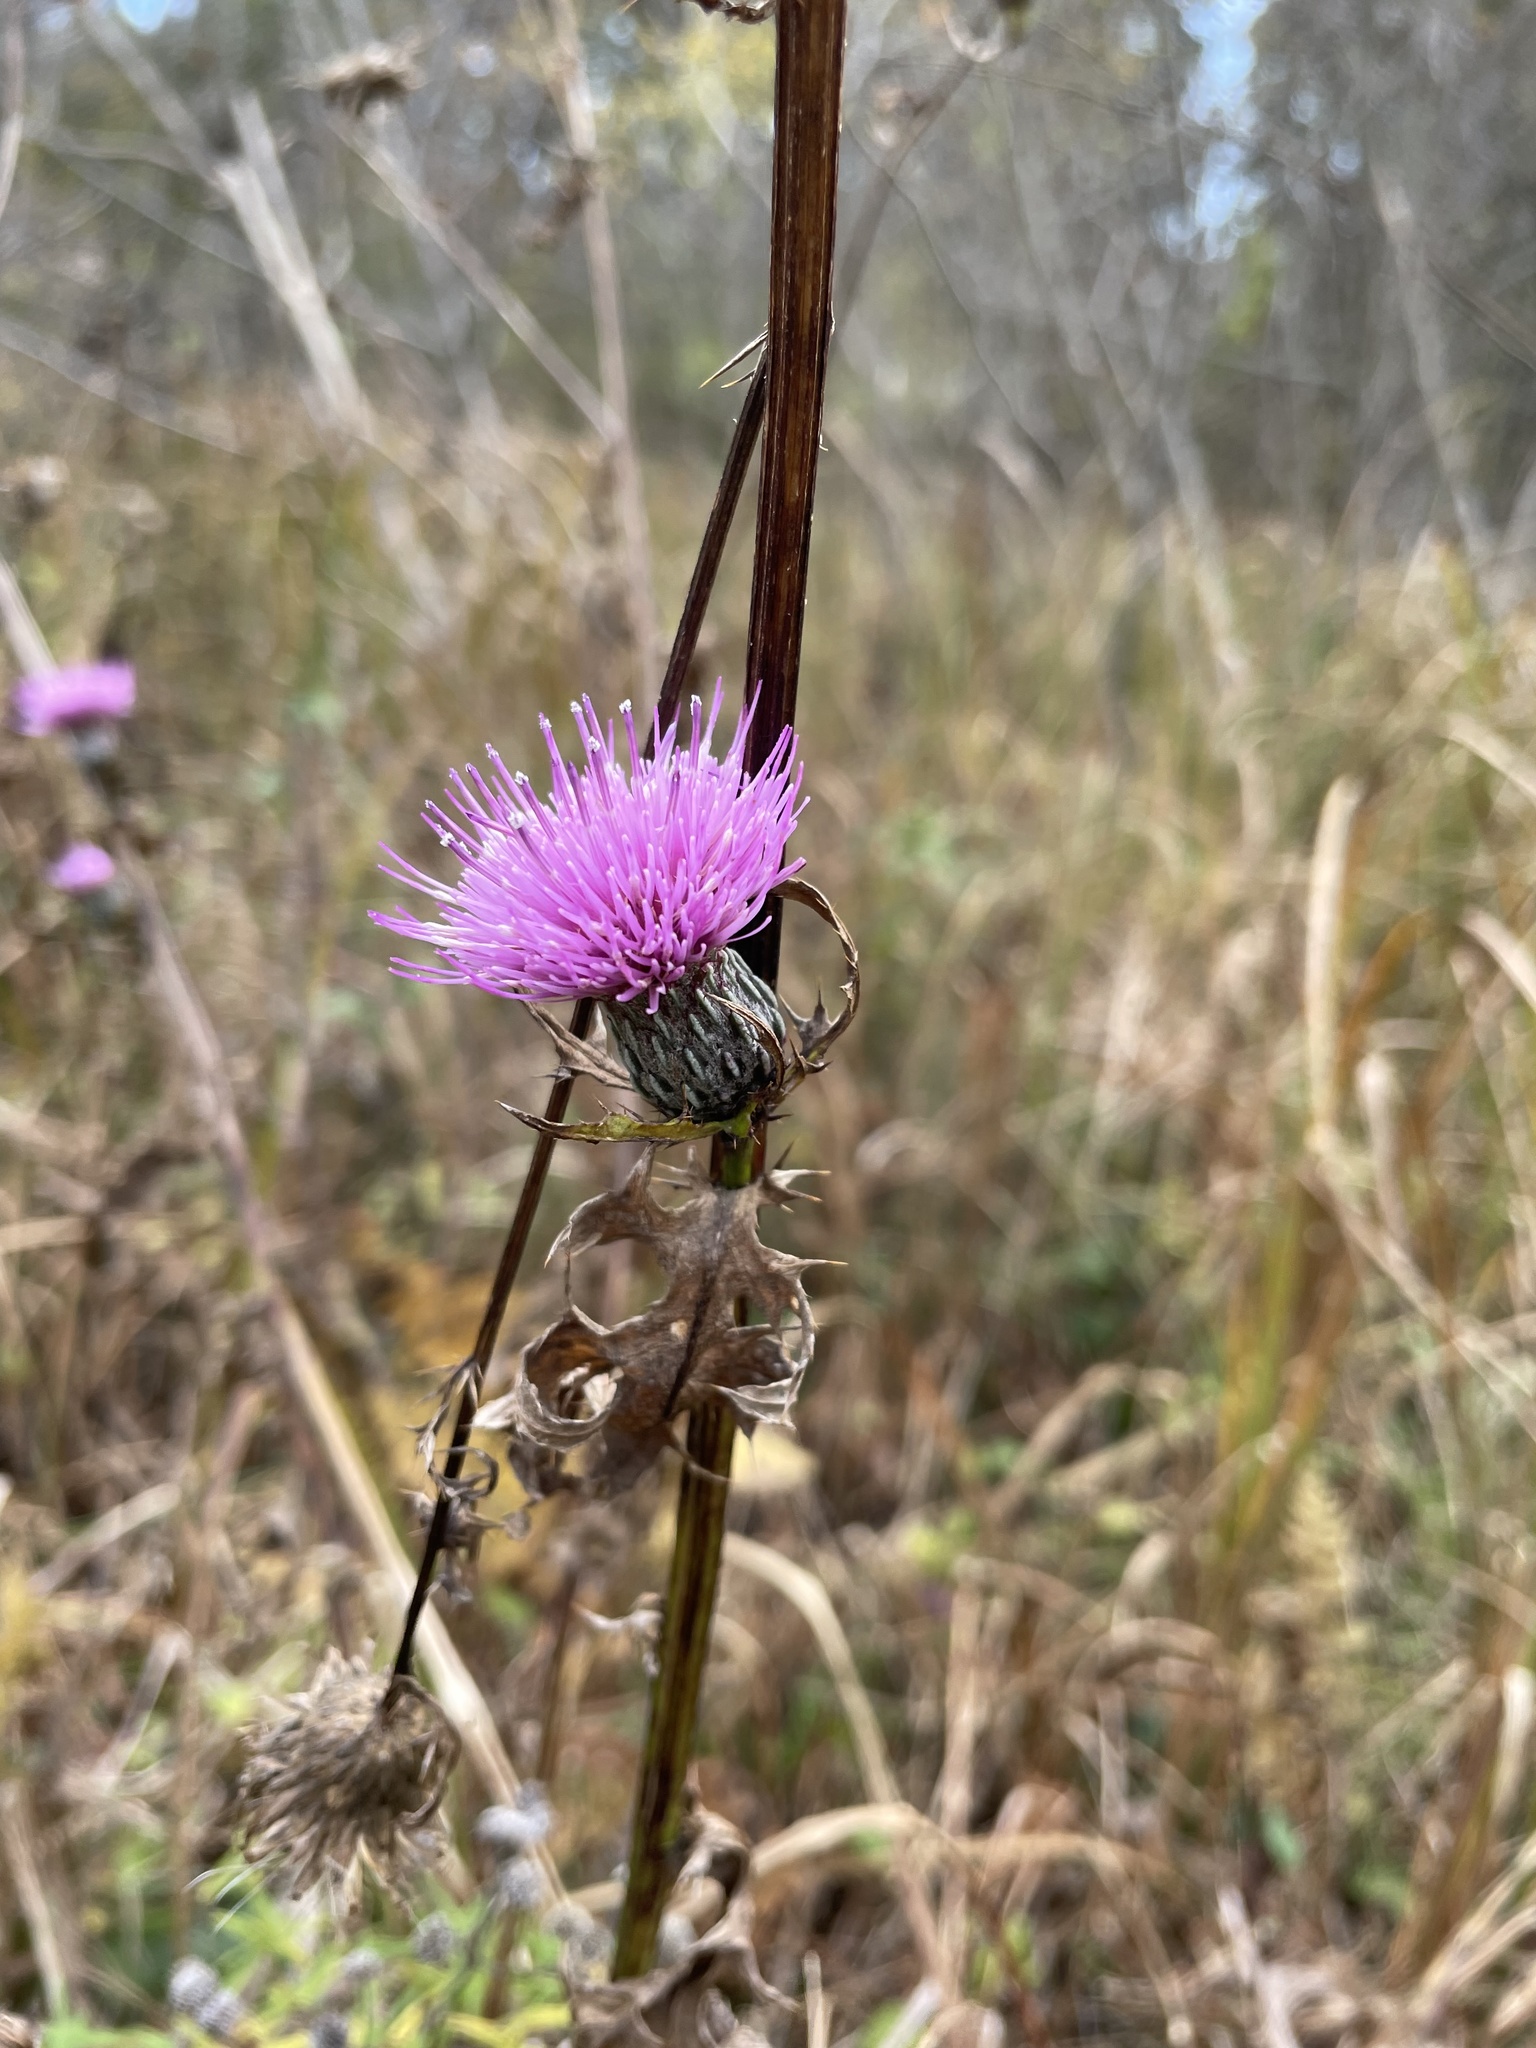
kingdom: Plantae
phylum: Tracheophyta
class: Magnoliopsida
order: Asterales
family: Asteraceae
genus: Cirsium
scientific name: Cirsium muticum
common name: Dunce-nettle
